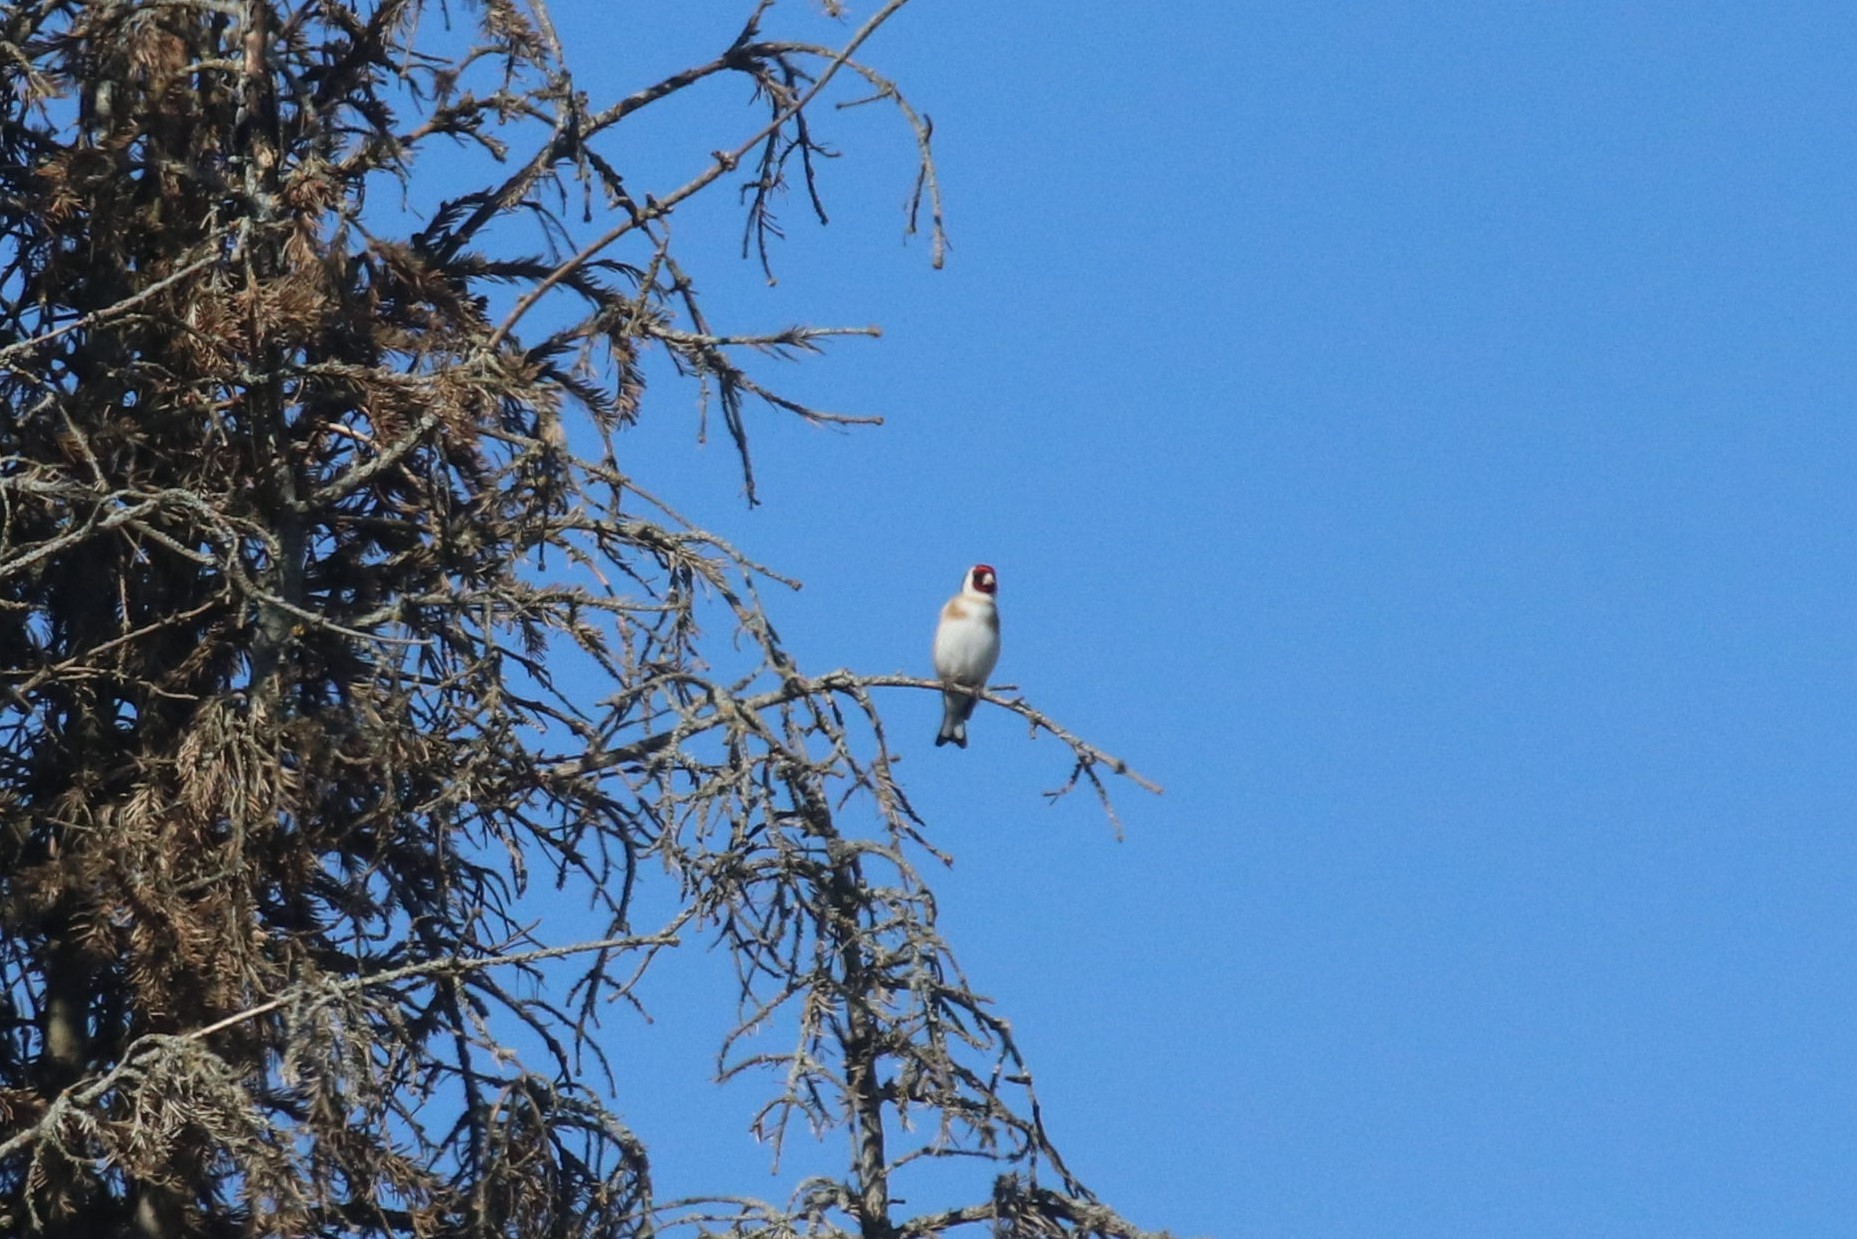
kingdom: Animalia
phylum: Chordata
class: Aves
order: Passeriformes
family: Fringillidae
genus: Carduelis
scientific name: Carduelis carduelis
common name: European goldfinch
